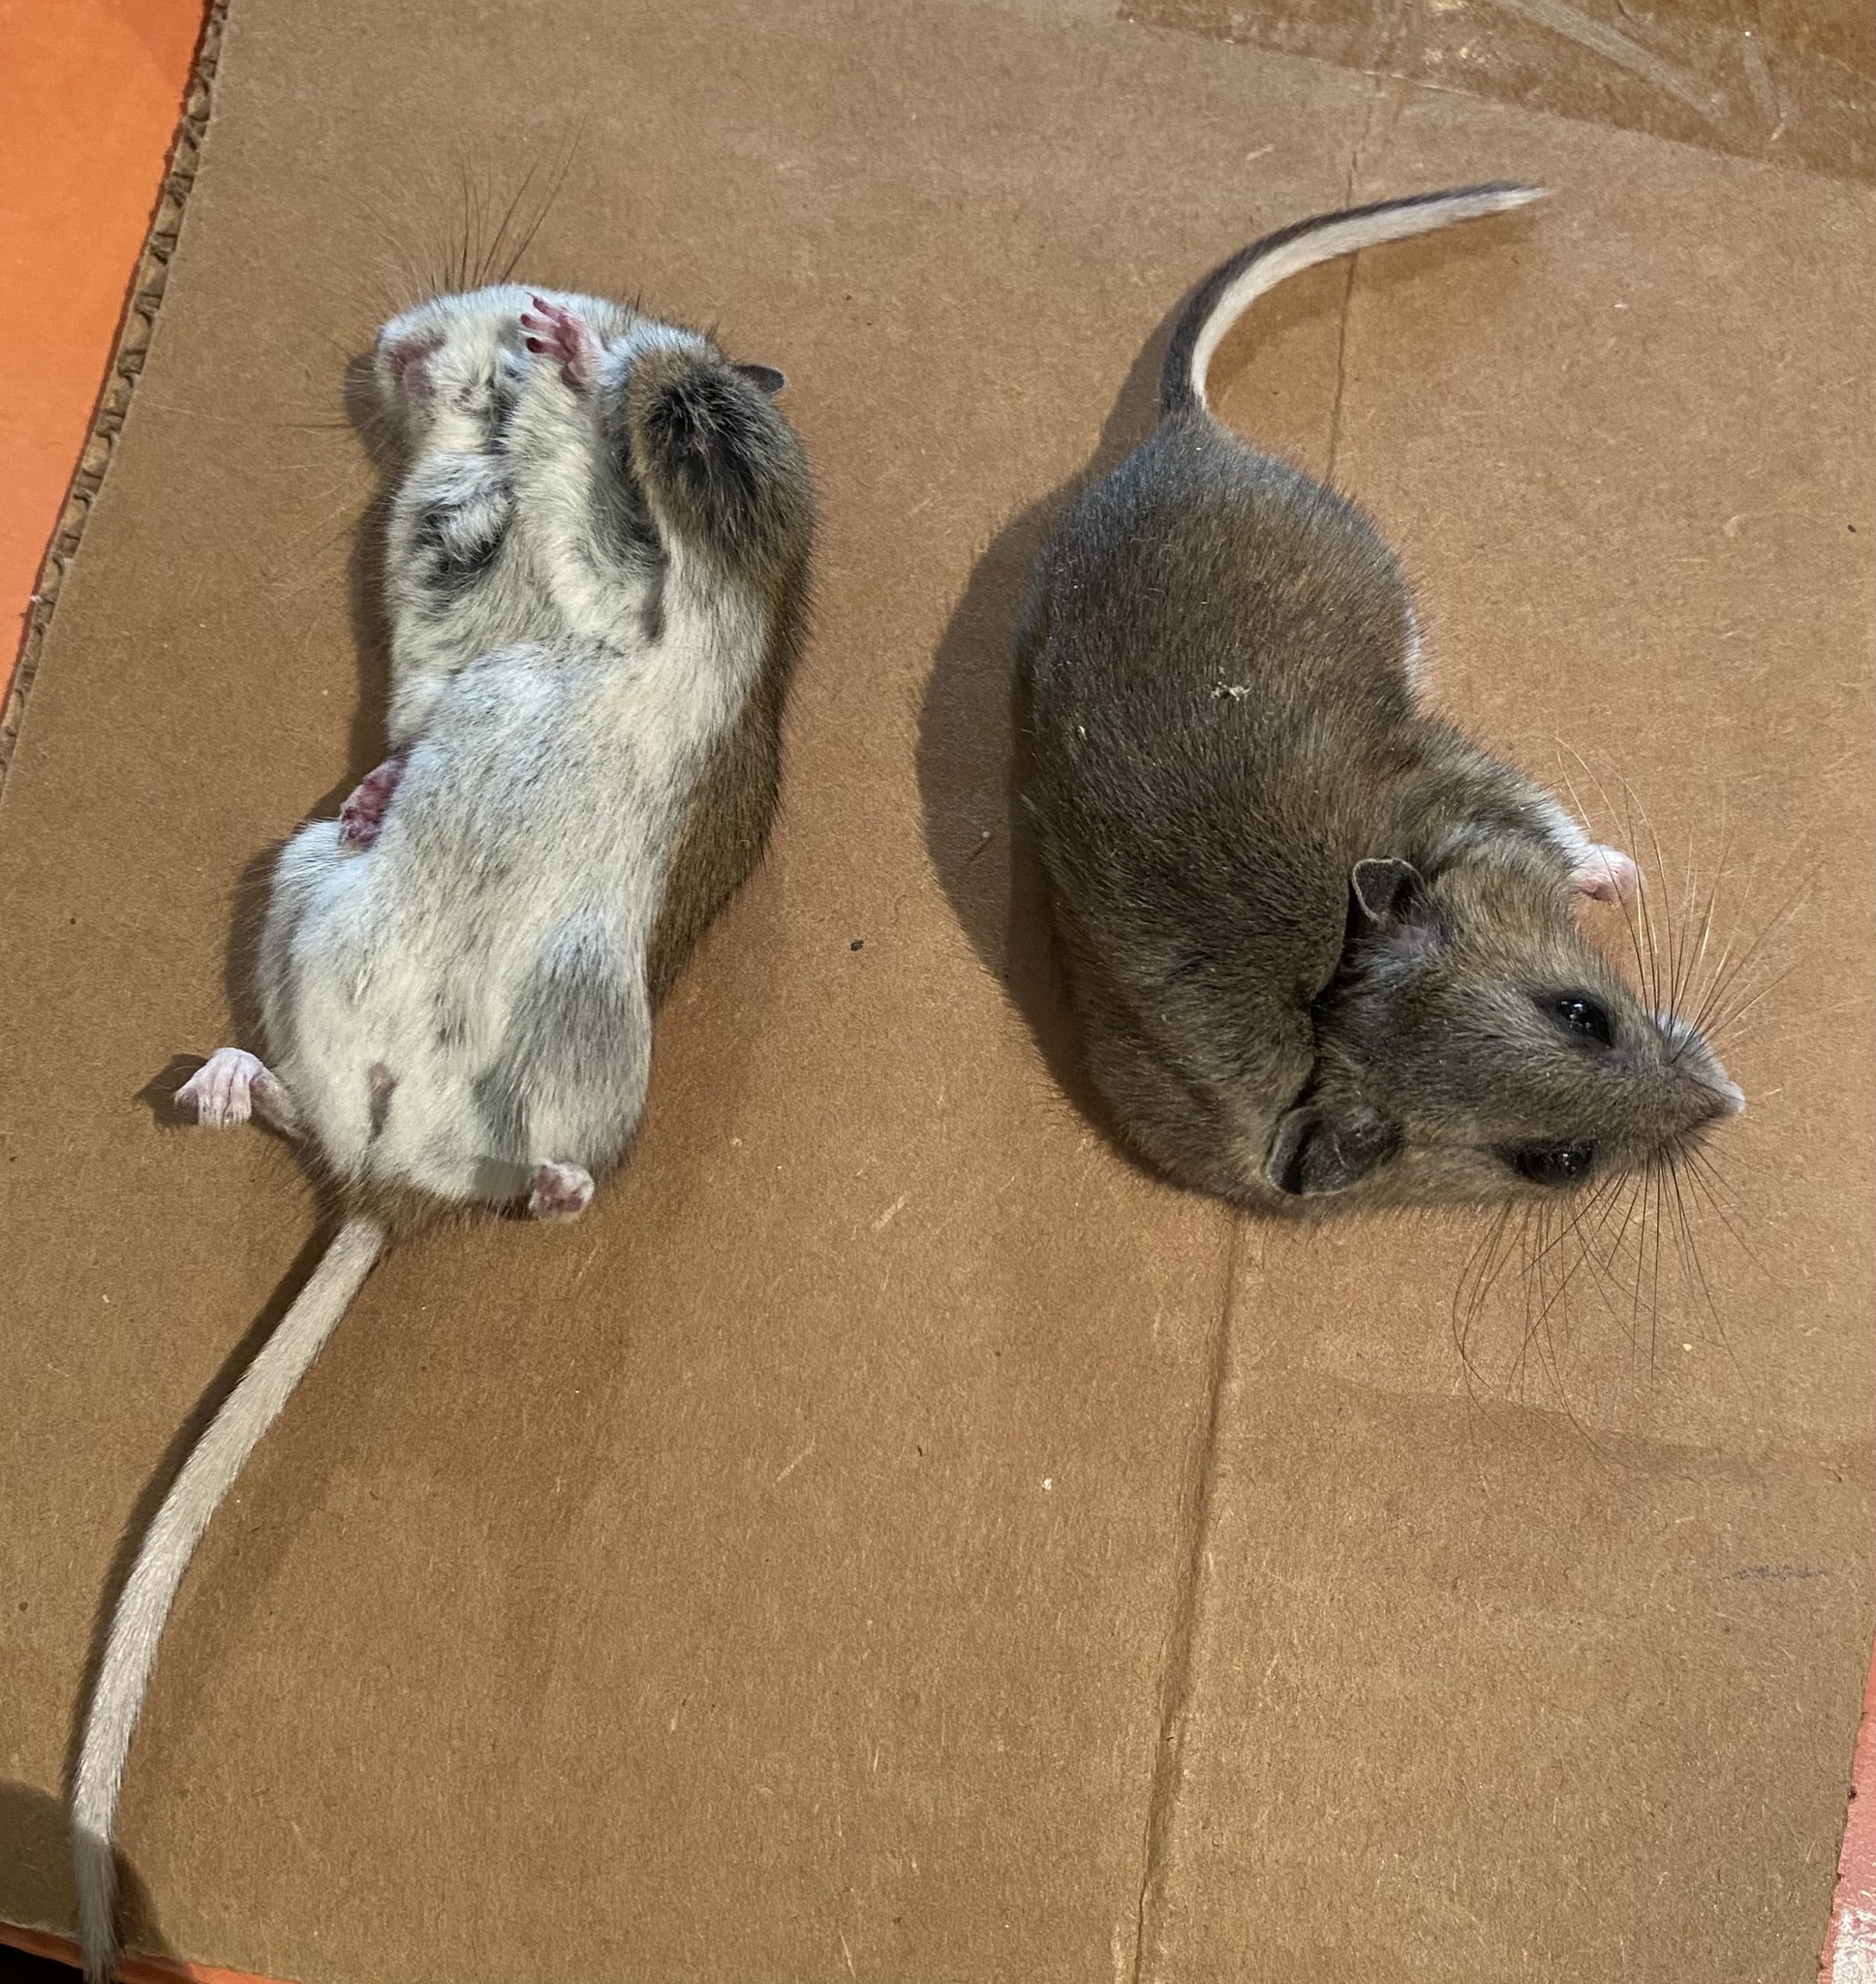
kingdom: Animalia
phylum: Chordata
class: Mammalia
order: Rodentia
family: Cricetidae
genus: Peromyscus
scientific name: Peromyscus maniculatus
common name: Deer mouse
